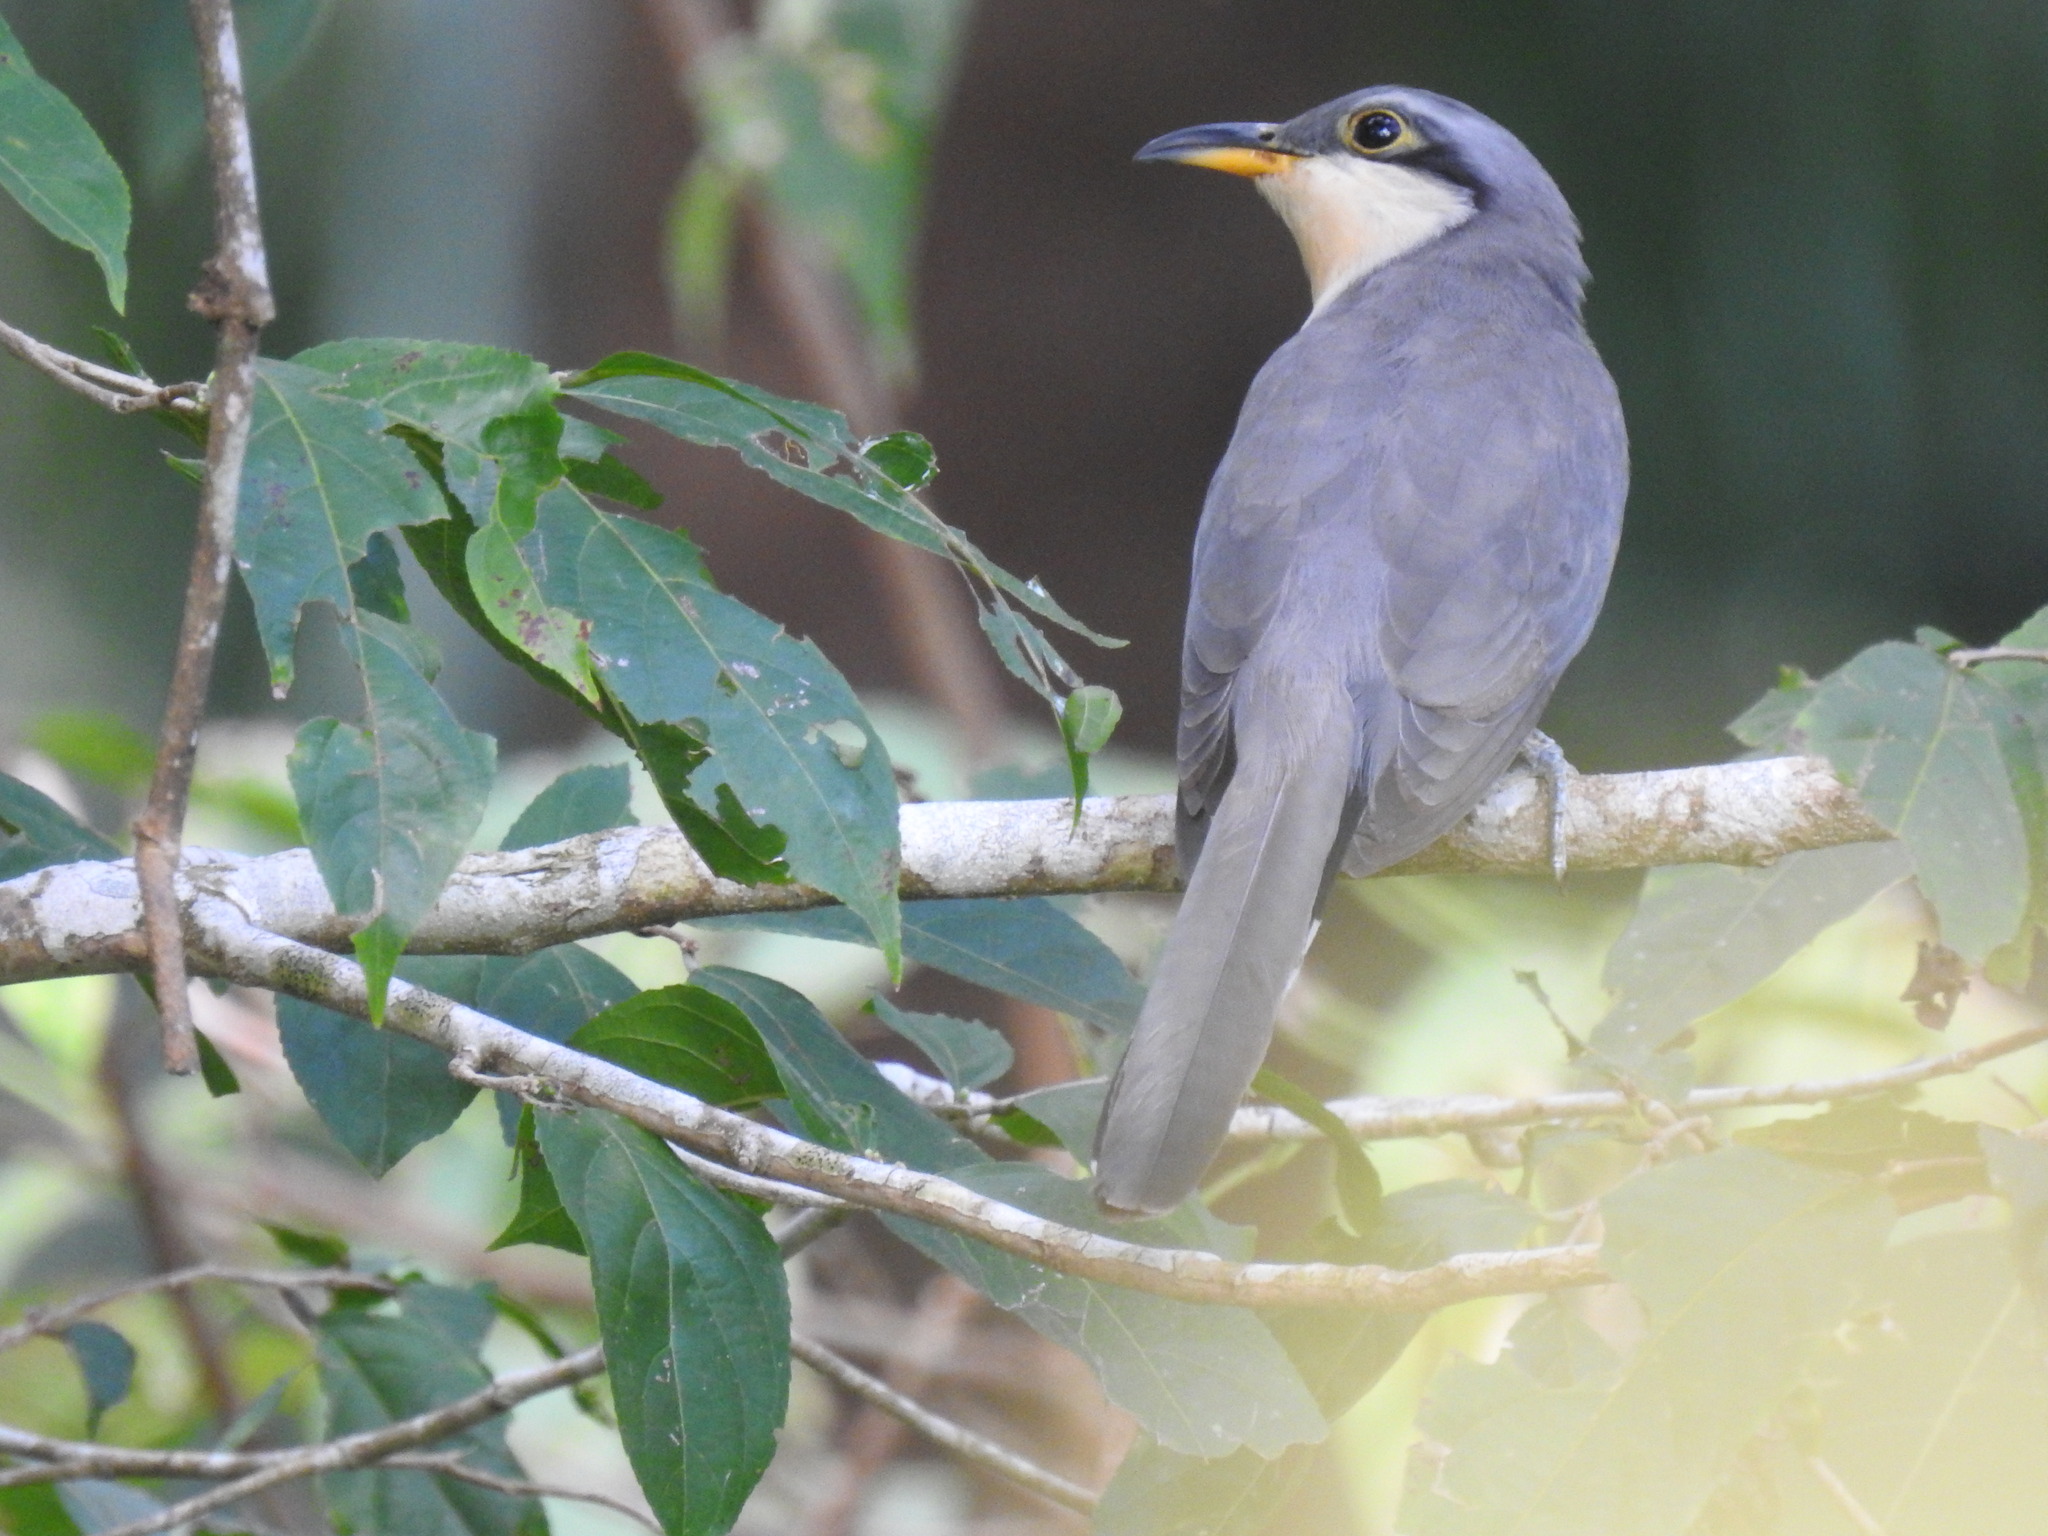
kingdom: Animalia
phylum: Chordata
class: Aves
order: Cuculiformes
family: Cuculidae
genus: Coccyzus
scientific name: Coccyzus minor
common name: Mangrove cuckoo
